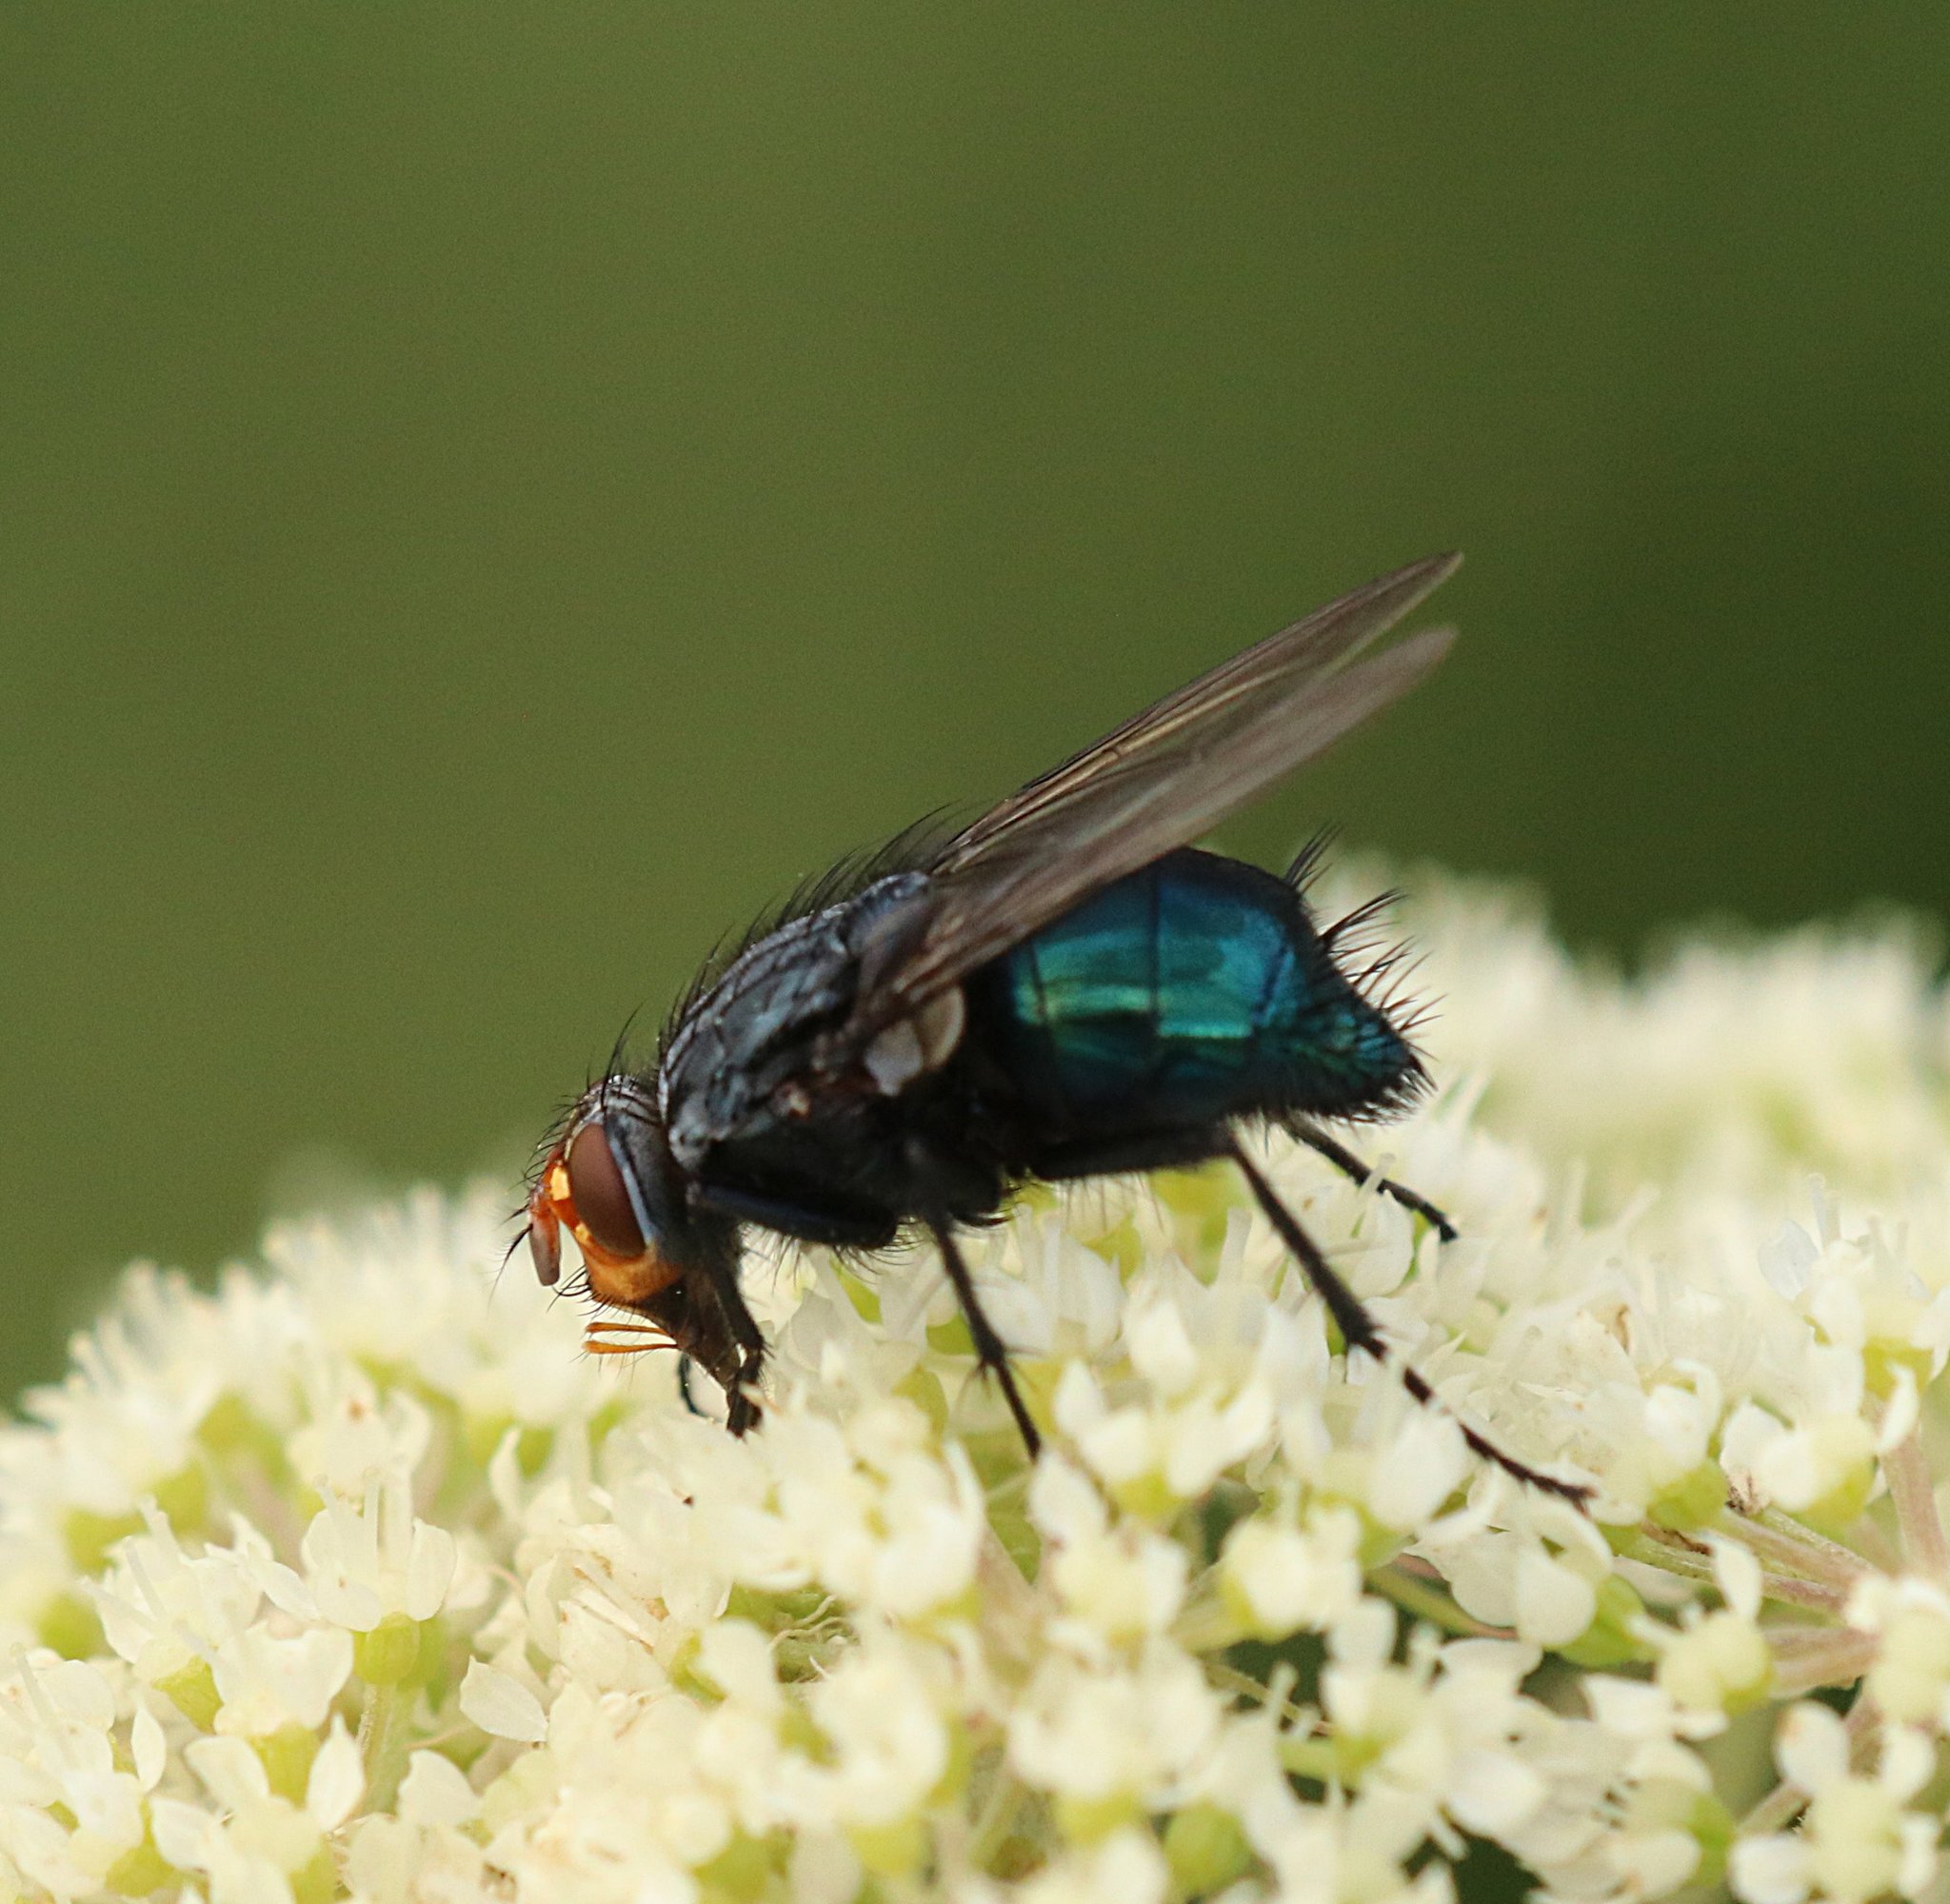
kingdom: Animalia
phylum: Arthropoda
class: Insecta
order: Diptera
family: Calliphoridae
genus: Cynomya
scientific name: Cynomya mortuorum
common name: Bluebottle blow fly
